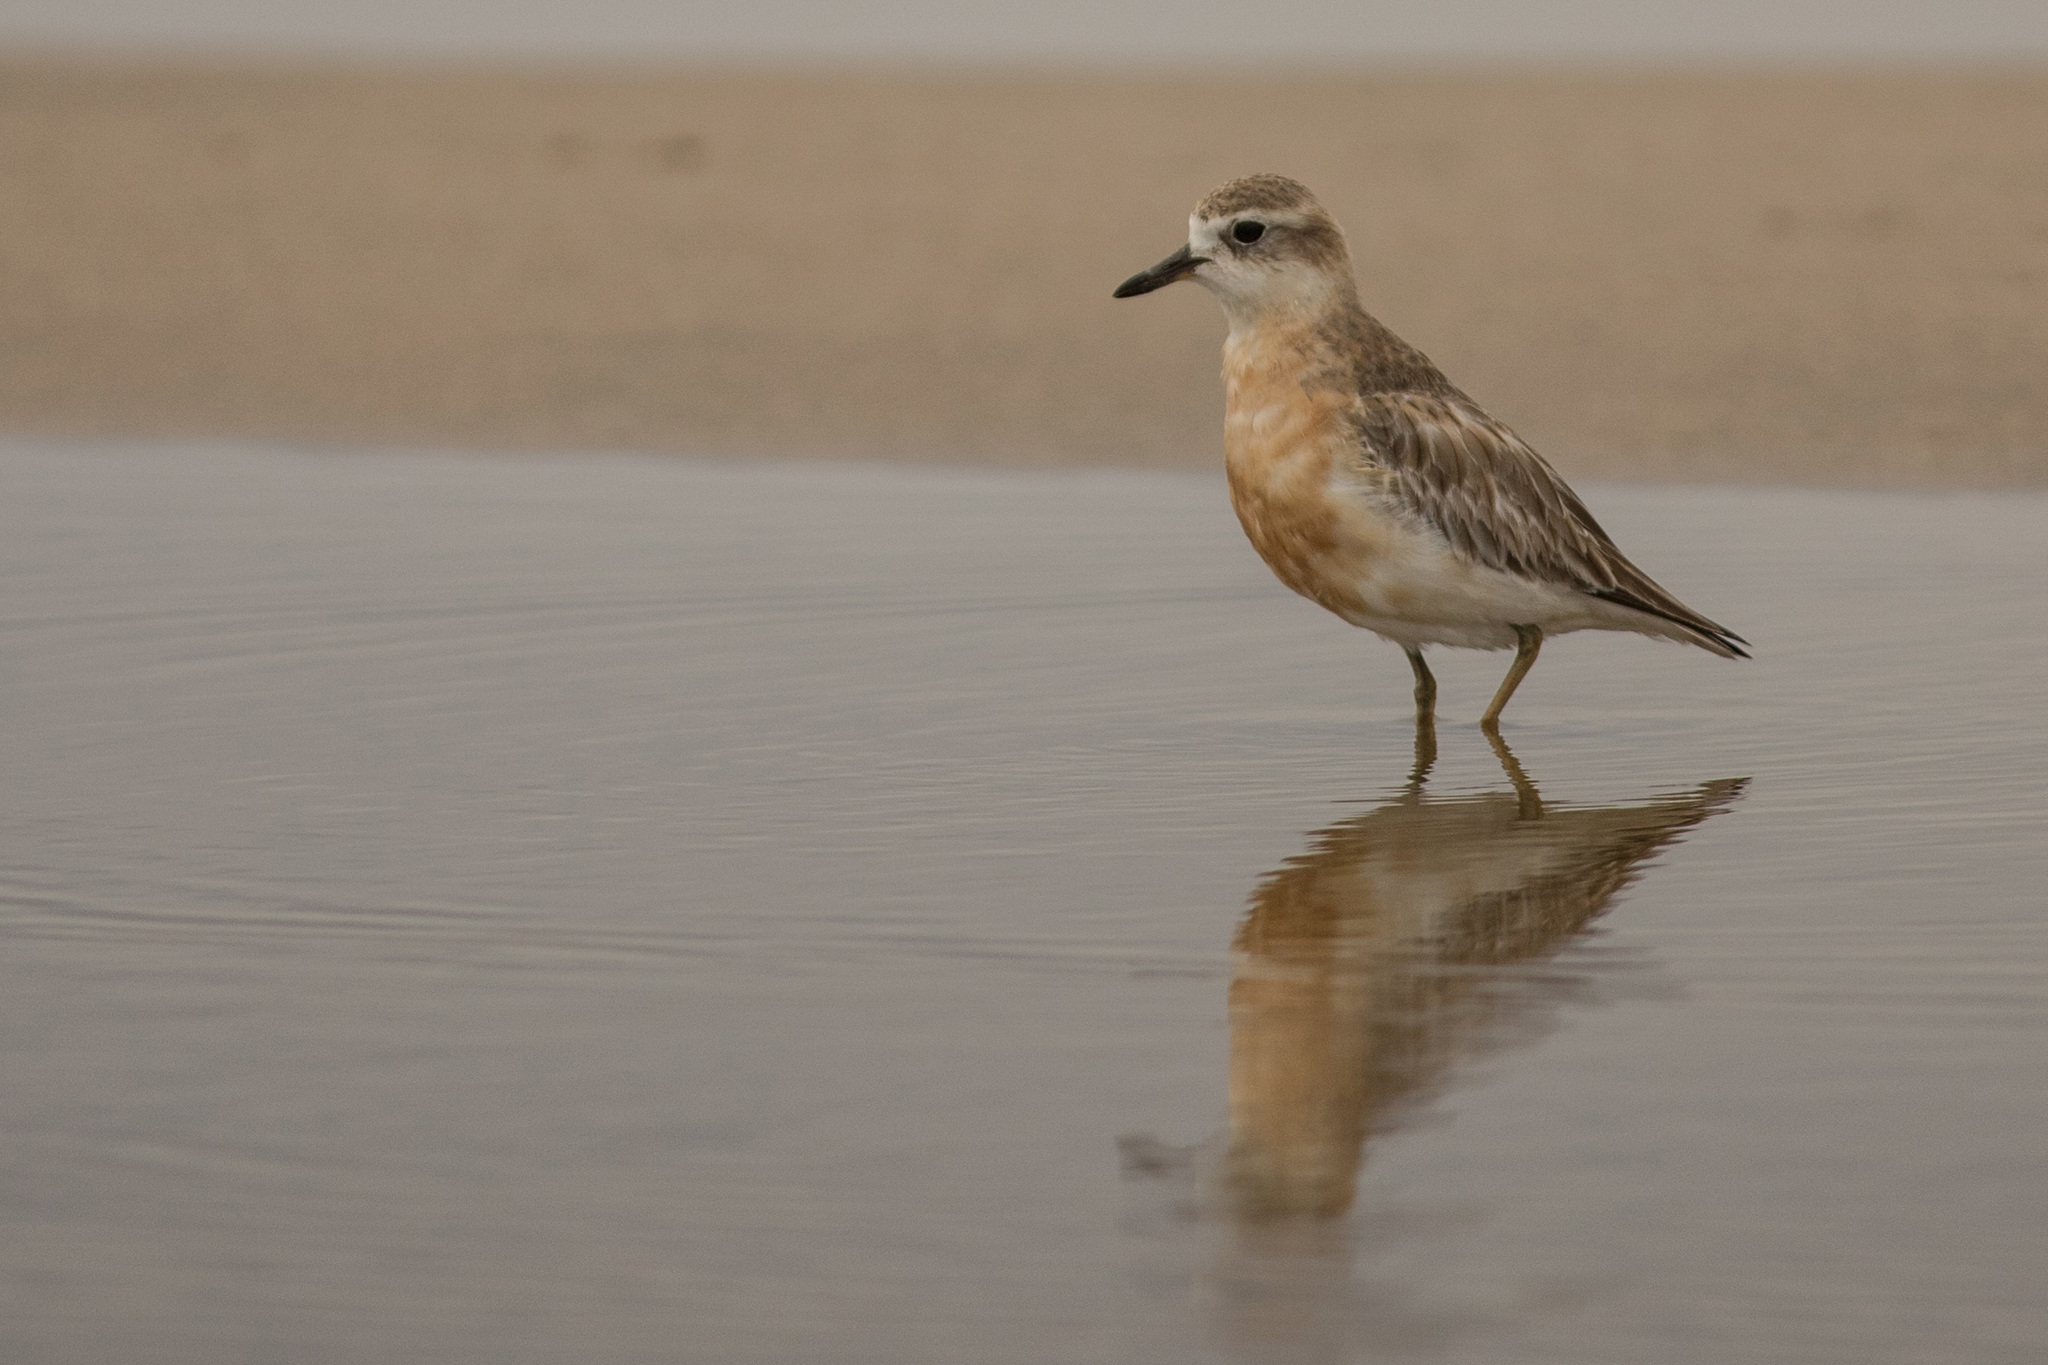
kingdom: Animalia
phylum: Chordata
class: Aves
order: Charadriiformes
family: Charadriidae
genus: Anarhynchus
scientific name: Anarhynchus
